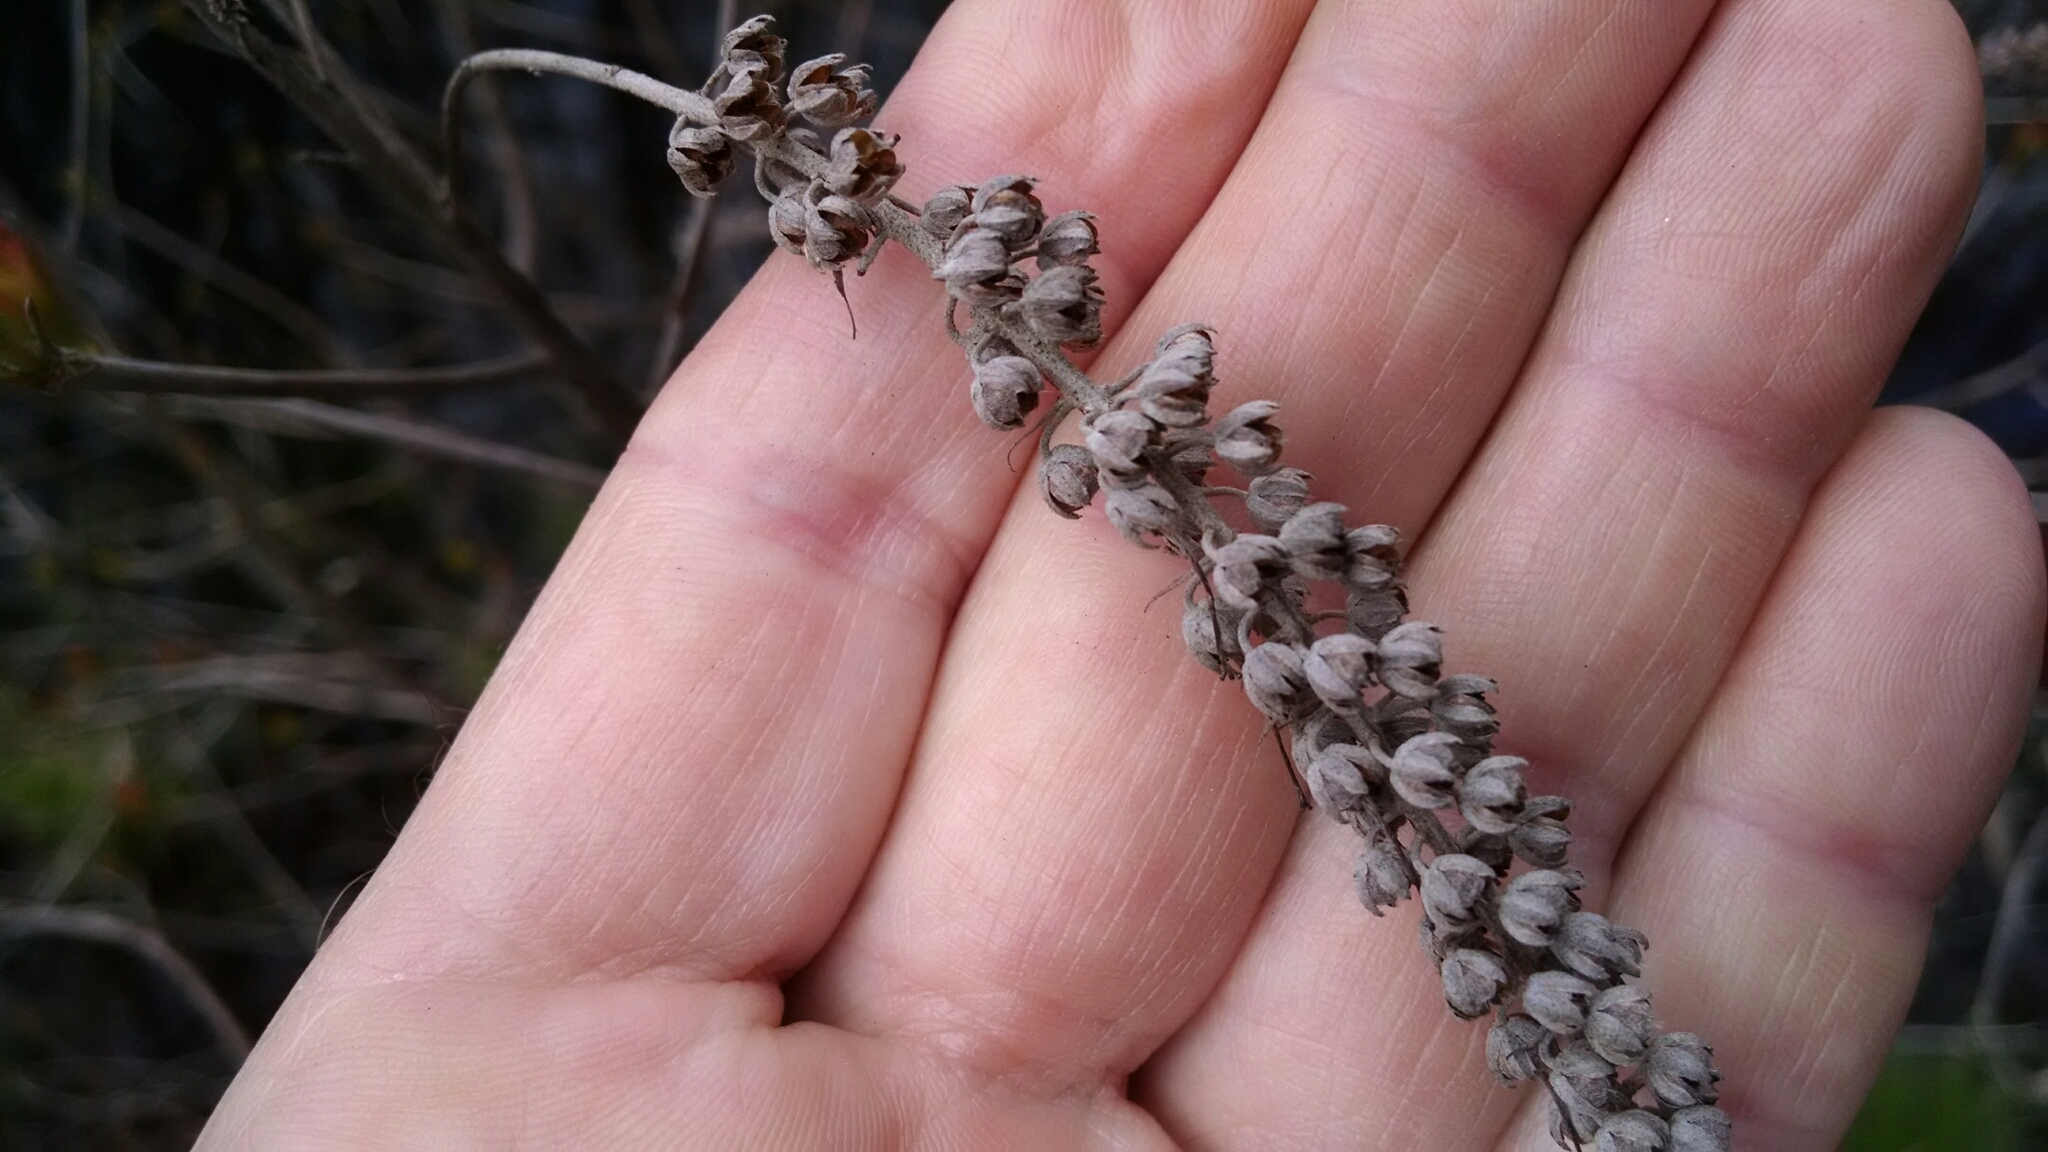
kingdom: Plantae
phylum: Tracheophyta
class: Magnoliopsida
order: Ericales
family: Clethraceae
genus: Clethra
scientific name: Clethra alnifolia
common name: Sweet pepperbush
